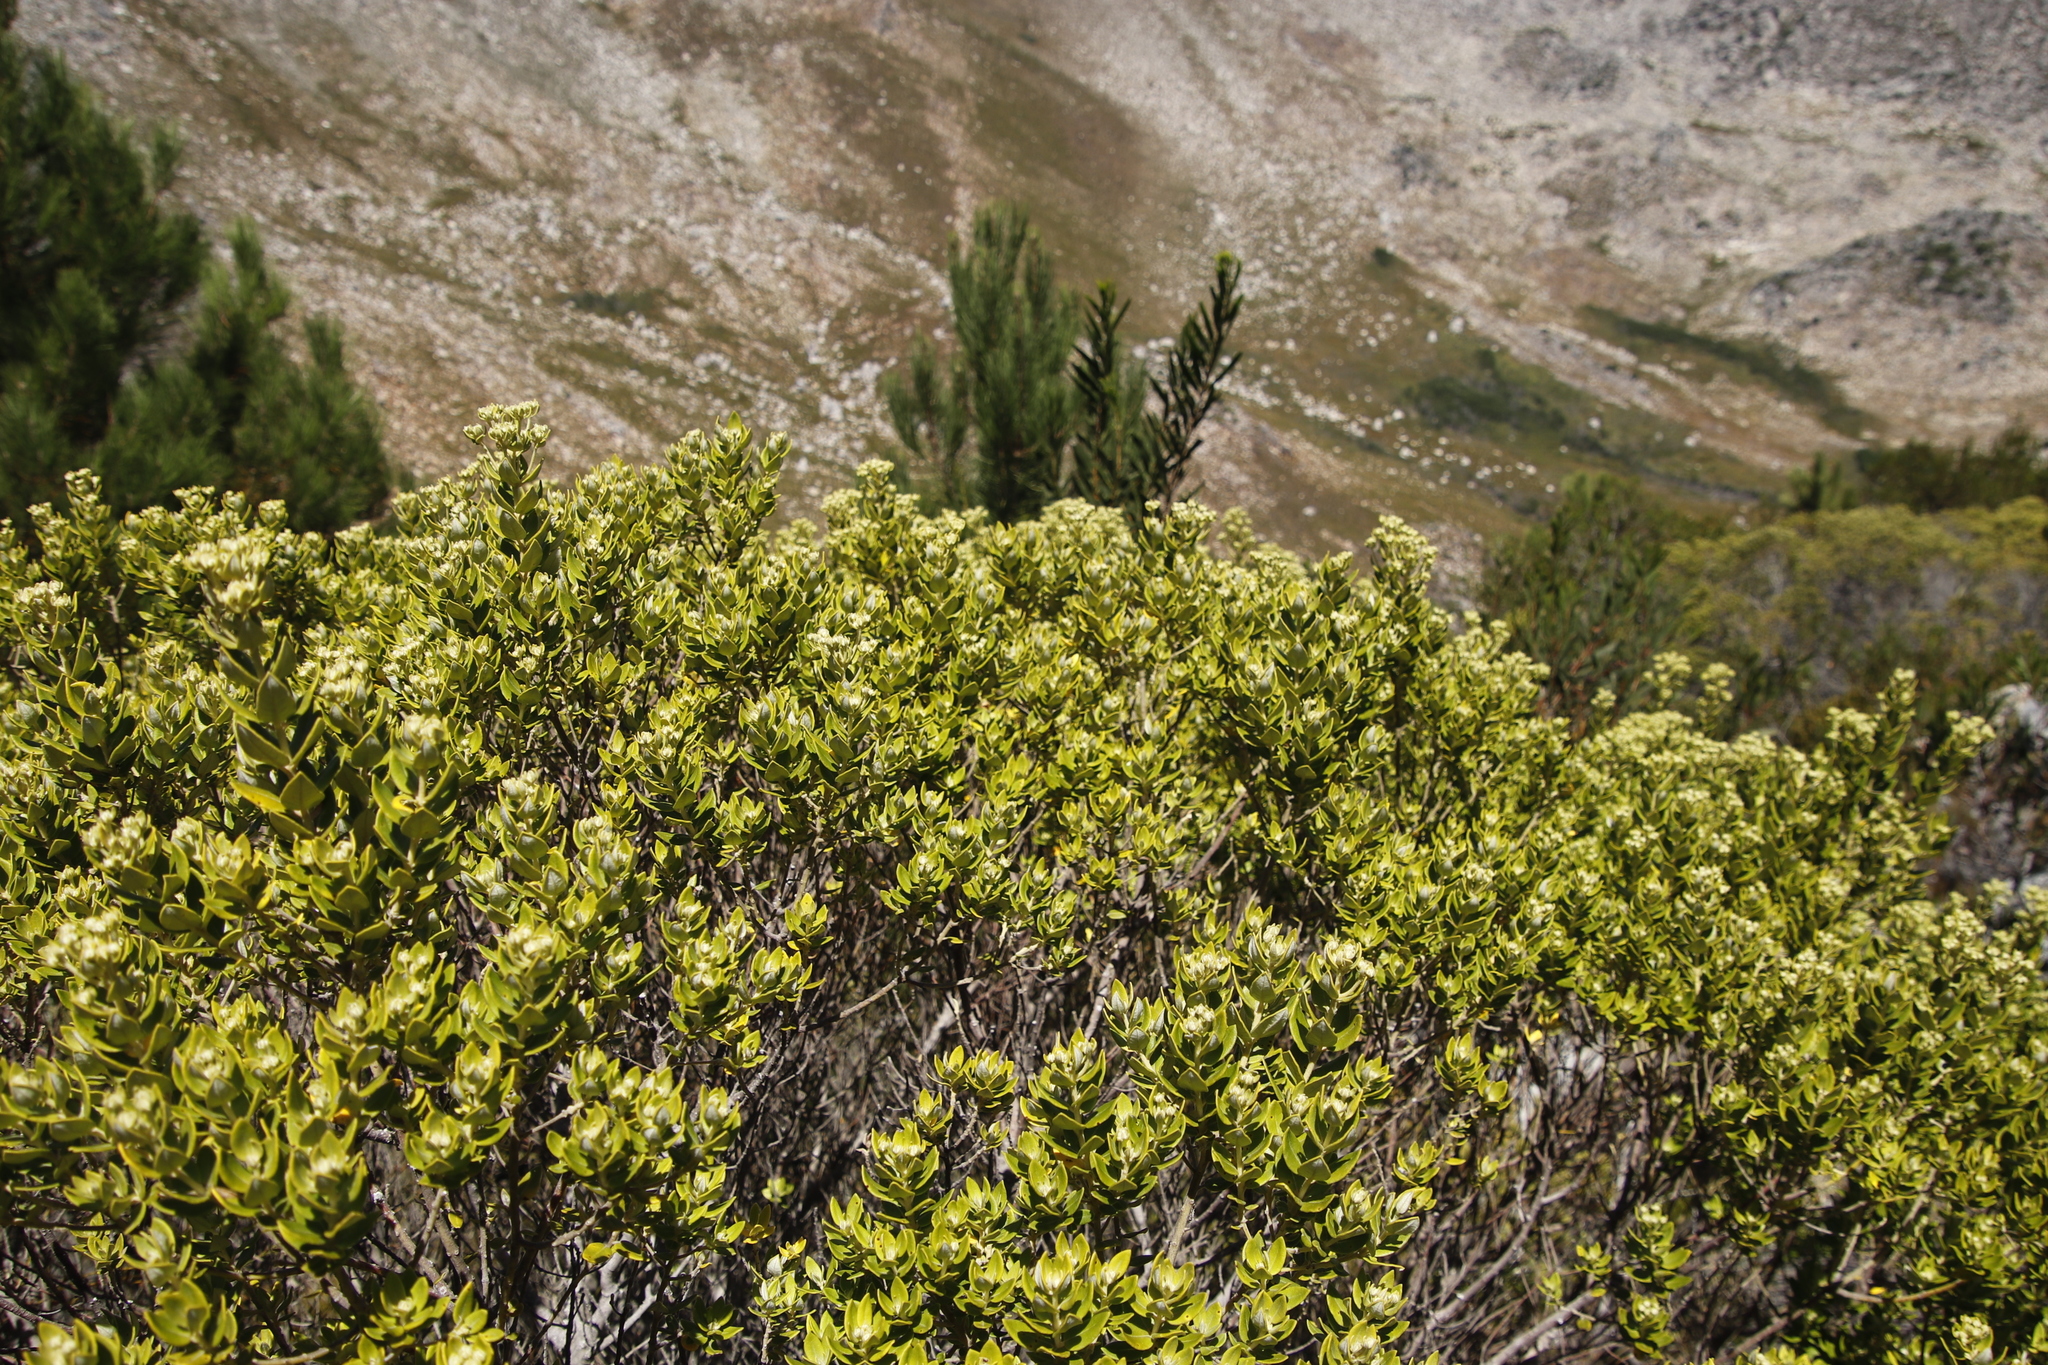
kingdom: Plantae
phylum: Tracheophyta
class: Magnoliopsida
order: Rosales
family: Rhamnaceae
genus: Phylica
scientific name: Phylica buxifolia
